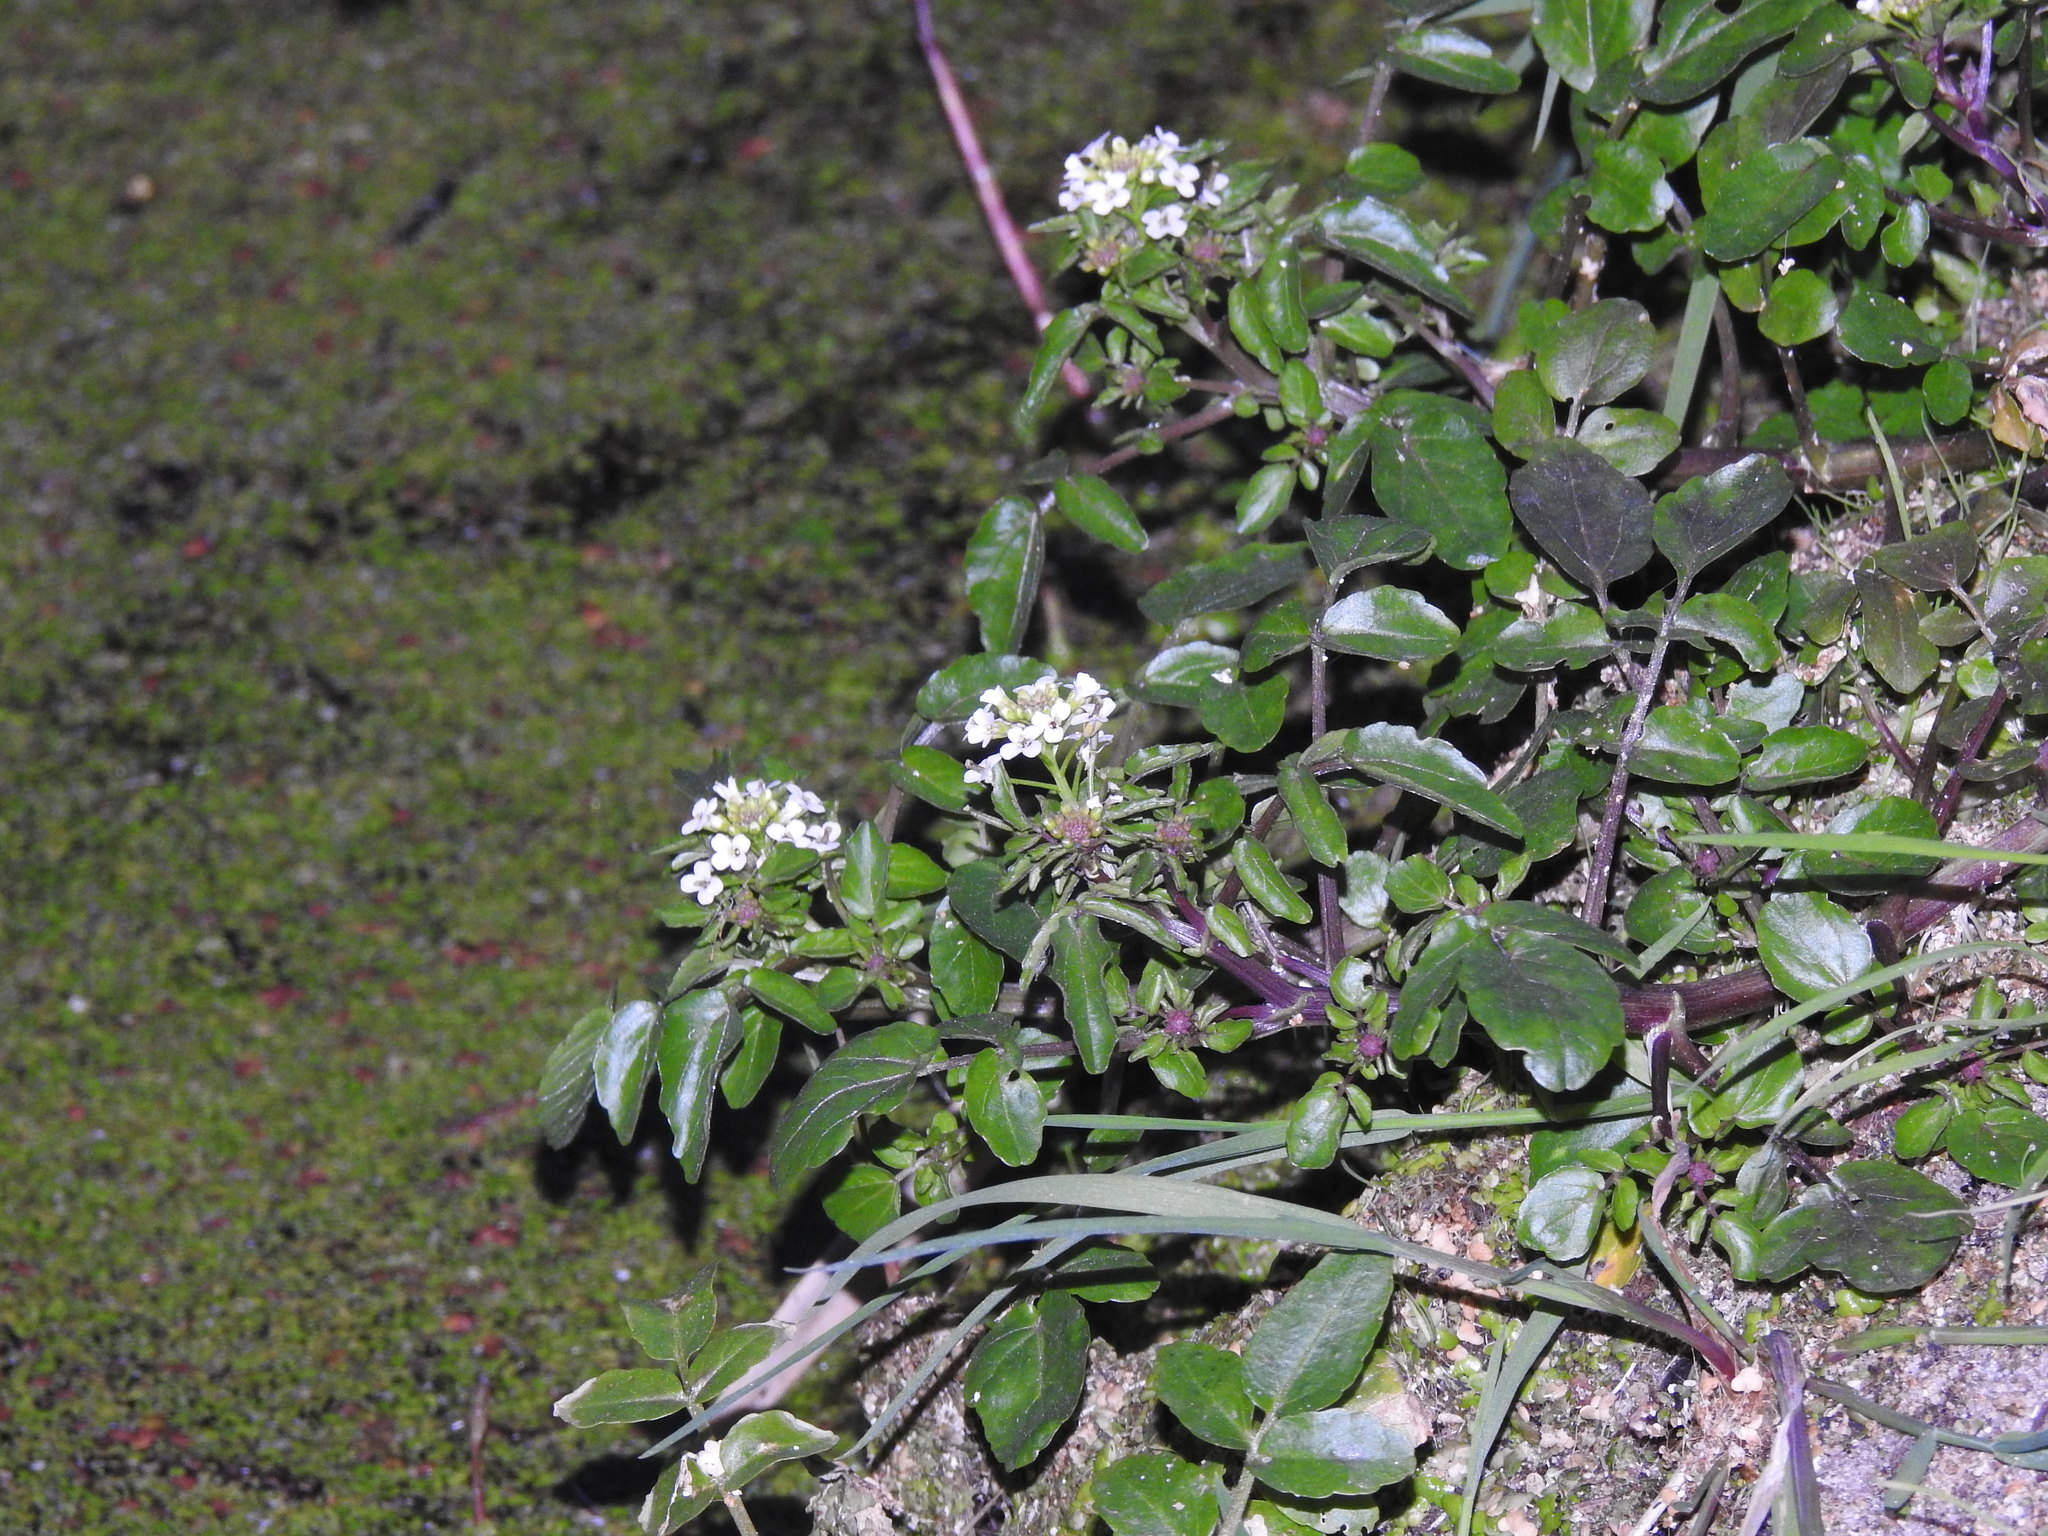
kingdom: Plantae
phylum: Tracheophyta
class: Magnoliopsida
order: Brassicales
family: Brassicaceae
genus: Nasturtium
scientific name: Nasturtium officinale
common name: Watercress
